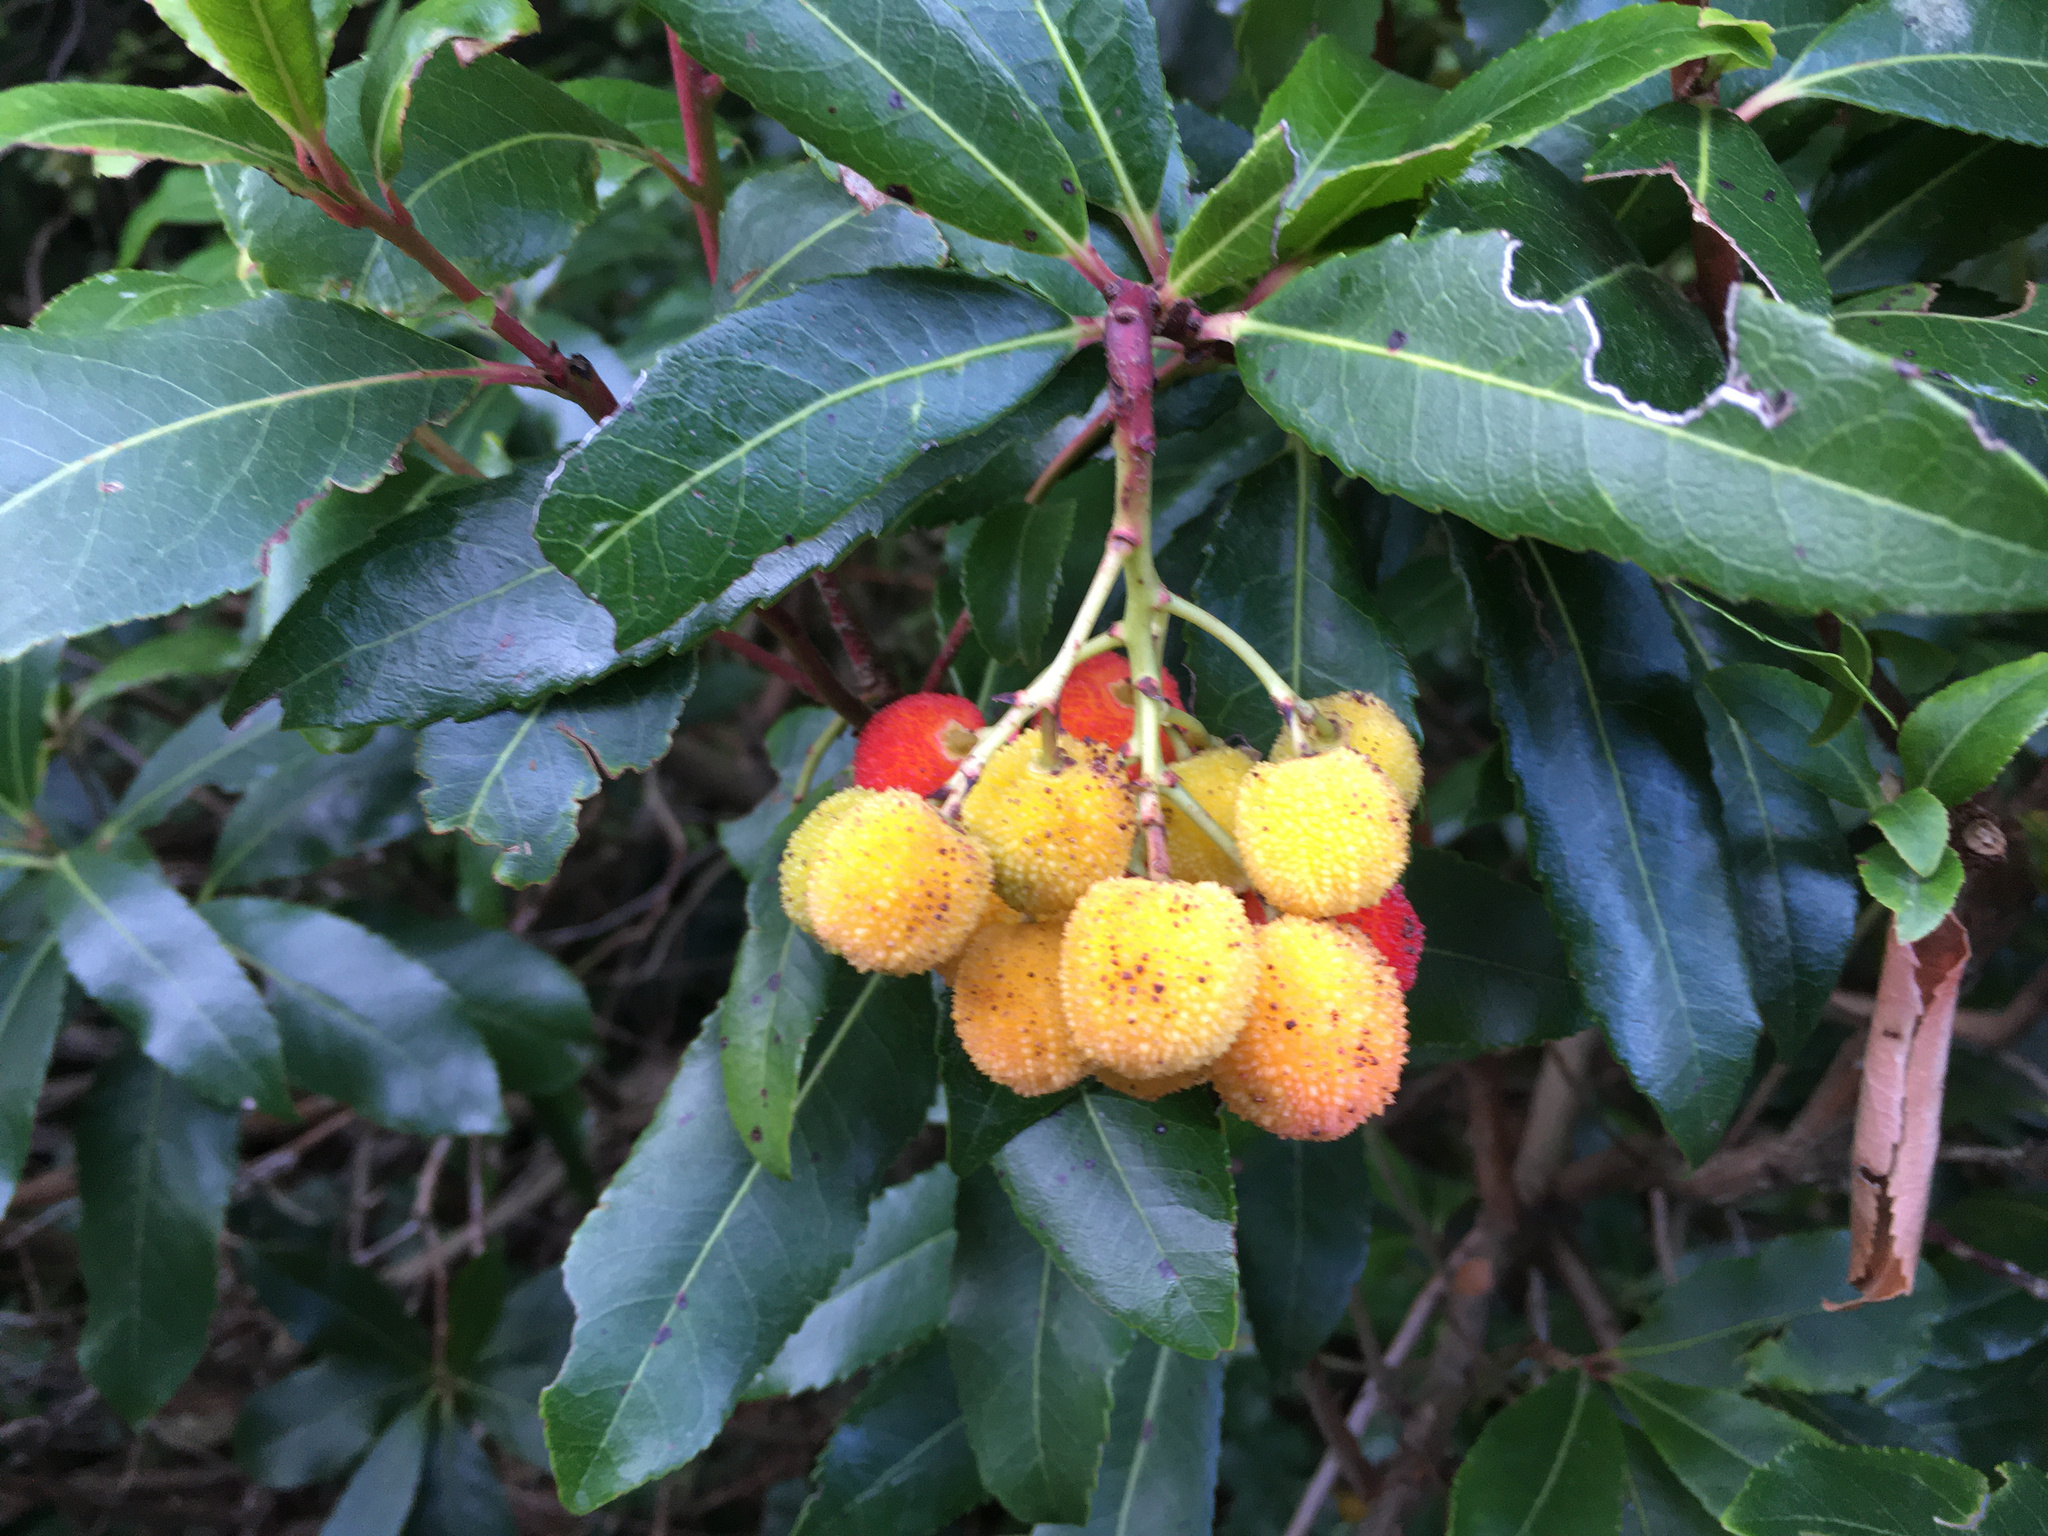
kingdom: Plantae
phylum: Tracheophyta
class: Magnoliopsida
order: Ericales
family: Ericaceae
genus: Arbutus
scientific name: Arbutus unedo
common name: Strawberry-tree
